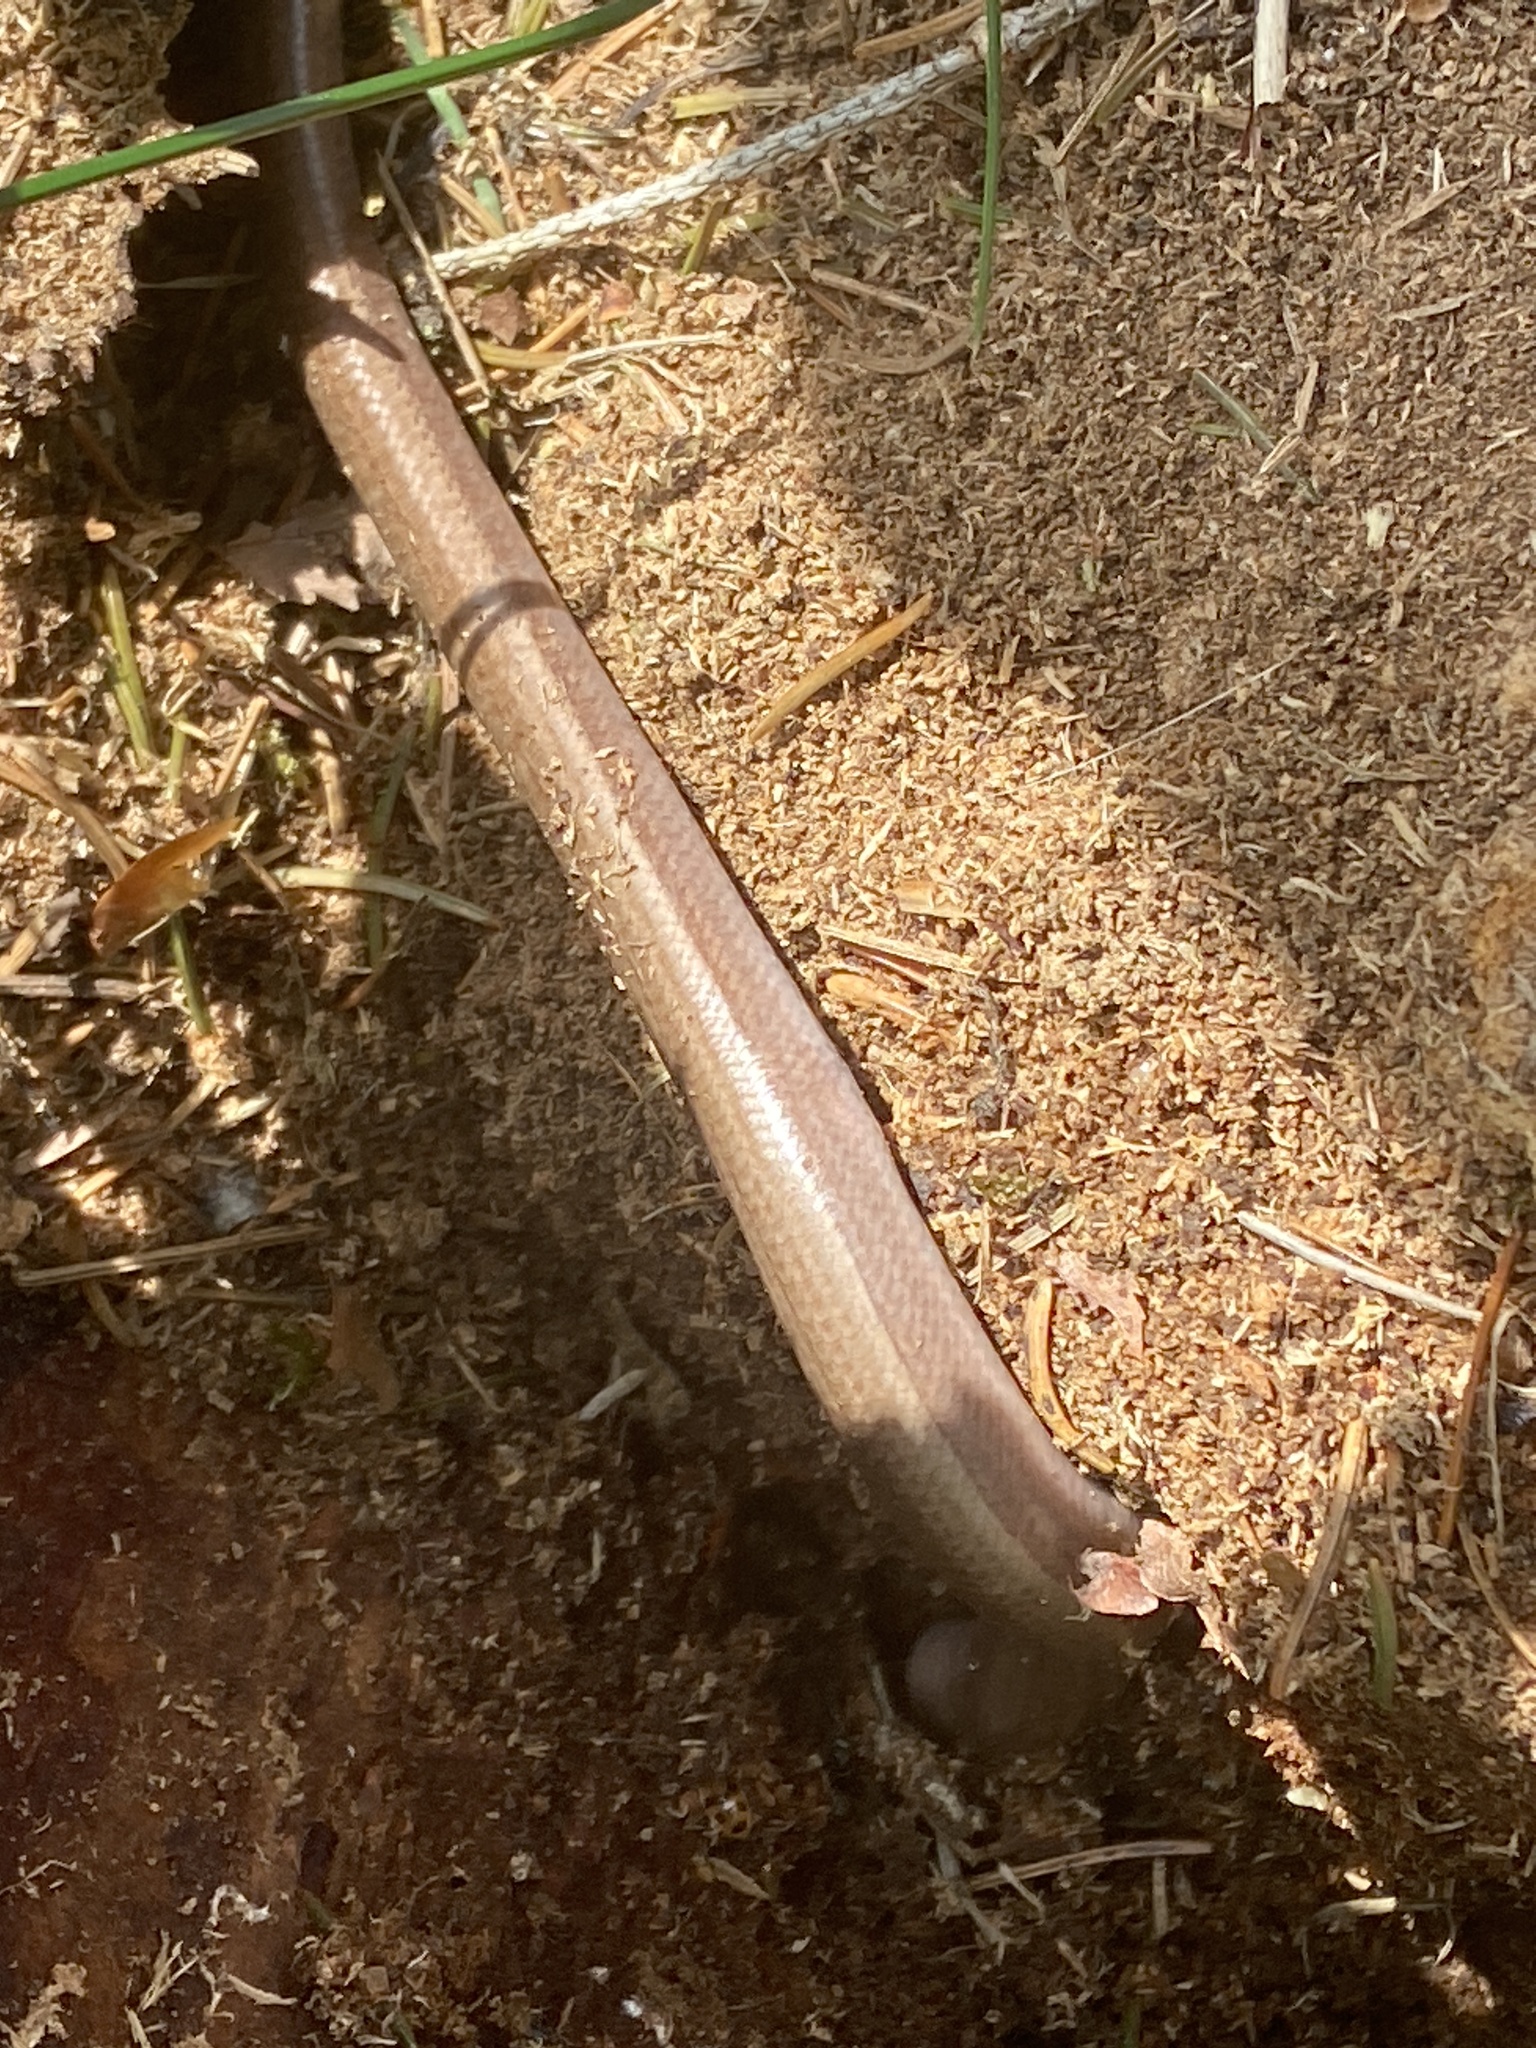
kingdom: Animalia
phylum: Chordata
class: Squamata
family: Anguidae
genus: Anguis
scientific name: Anguis fragilis
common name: Slow worm
